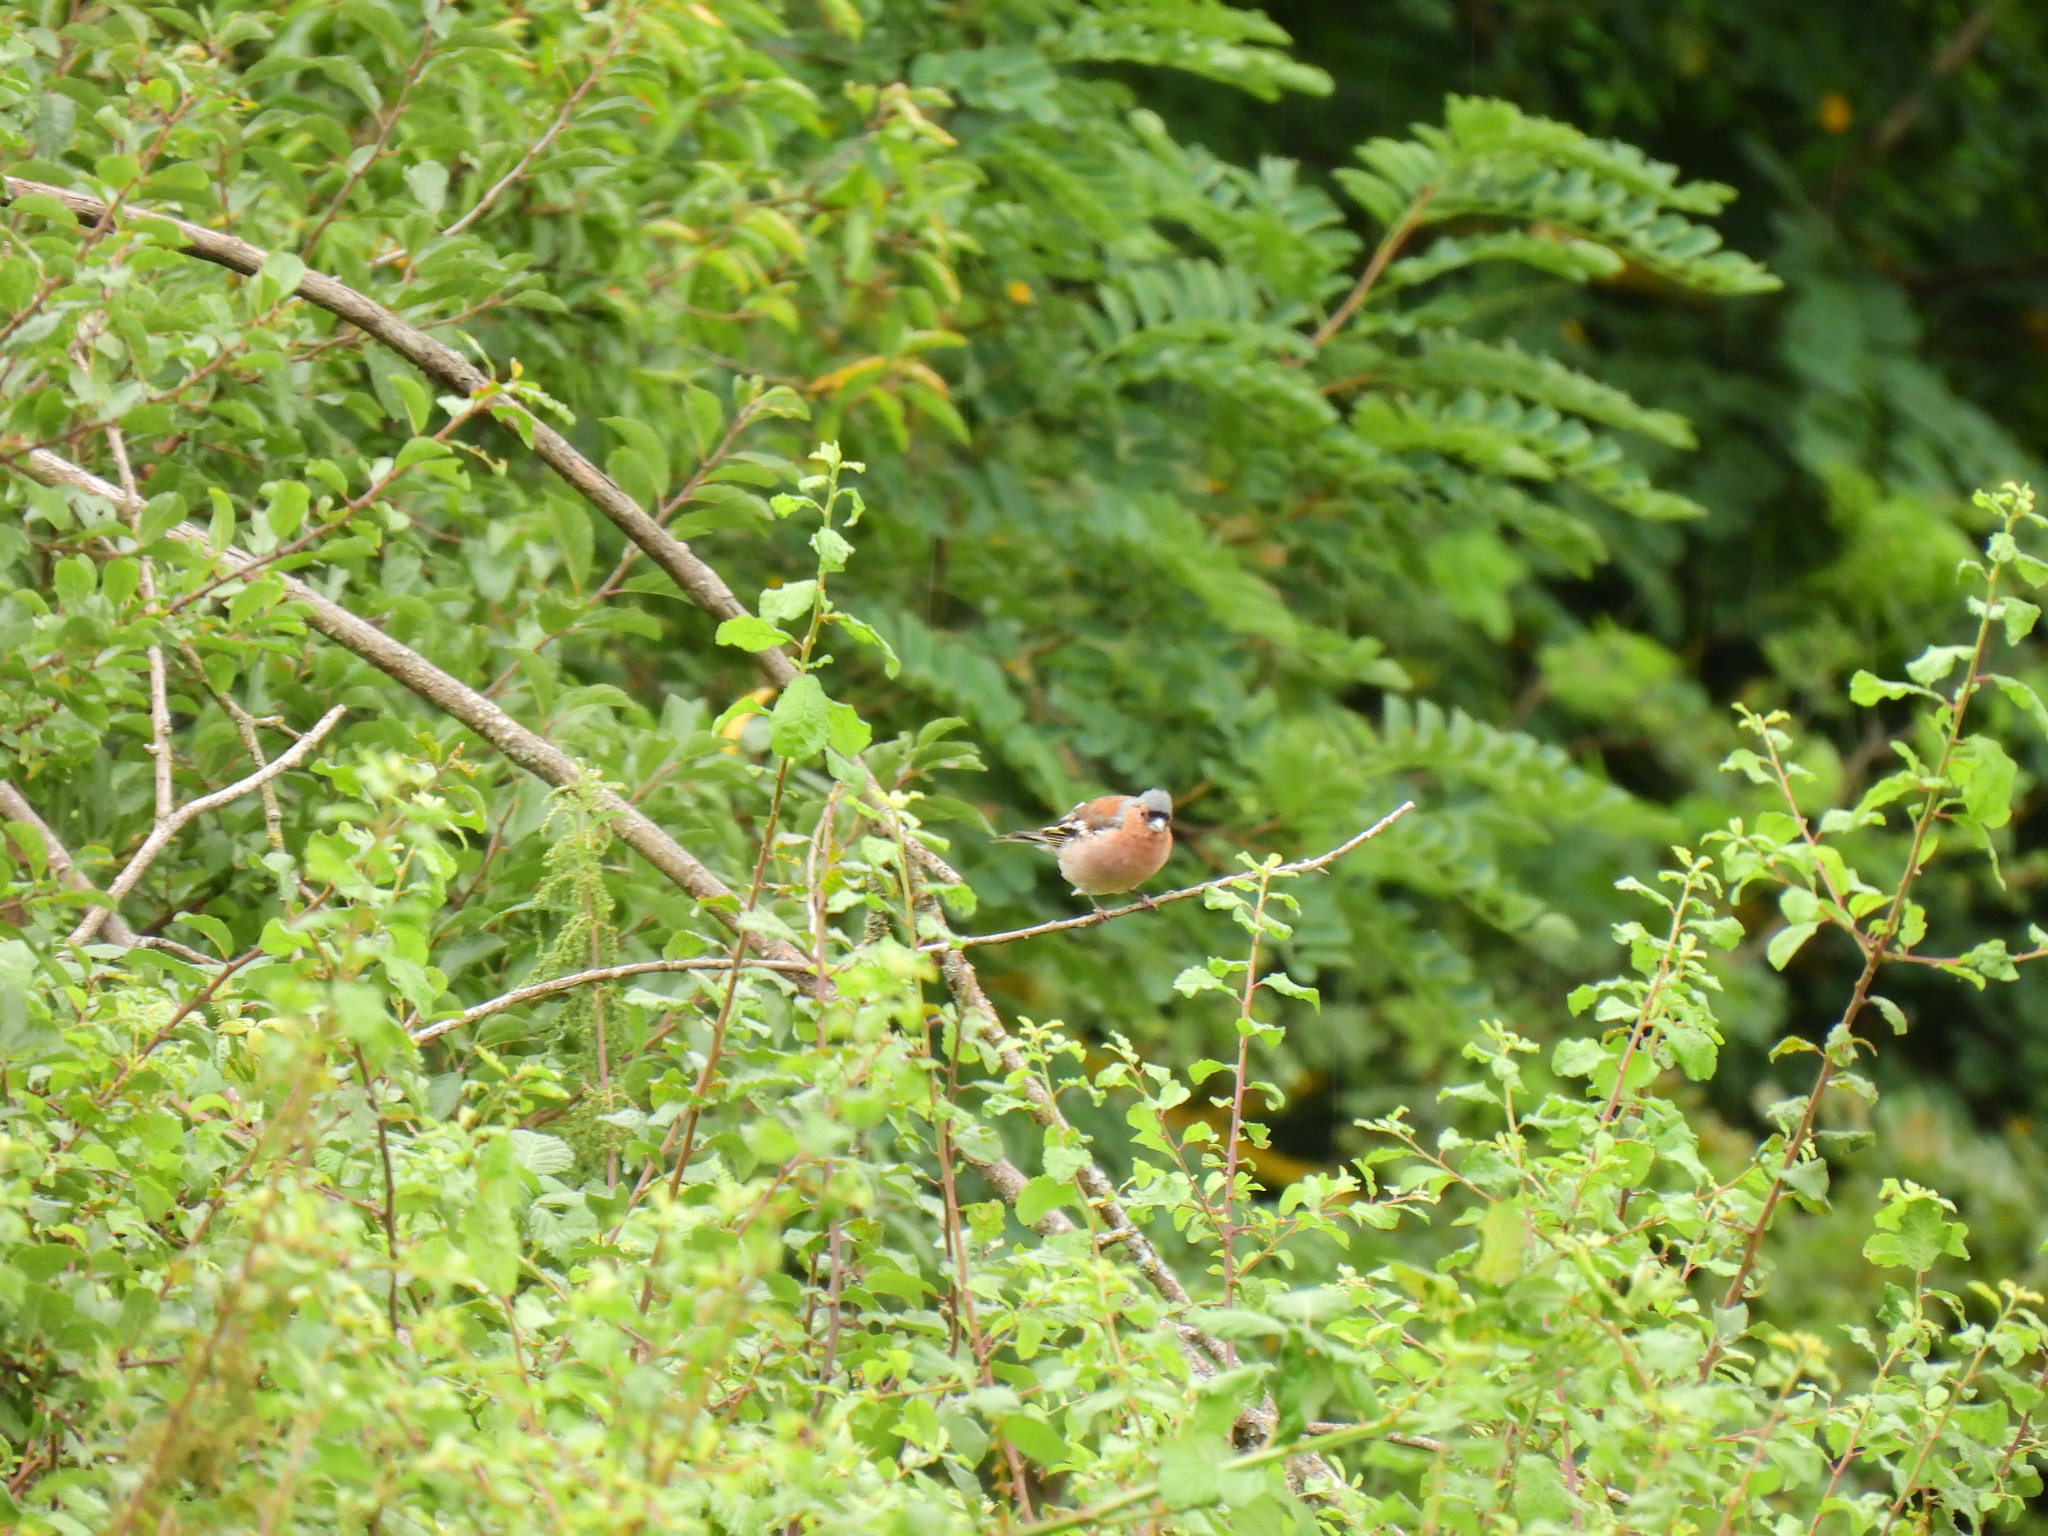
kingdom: Animalia
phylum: Chordata
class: Aves
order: Passeriformes
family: Fringillidae
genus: Fringilla
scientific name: Fringilla coelebs
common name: Common chaffinch
